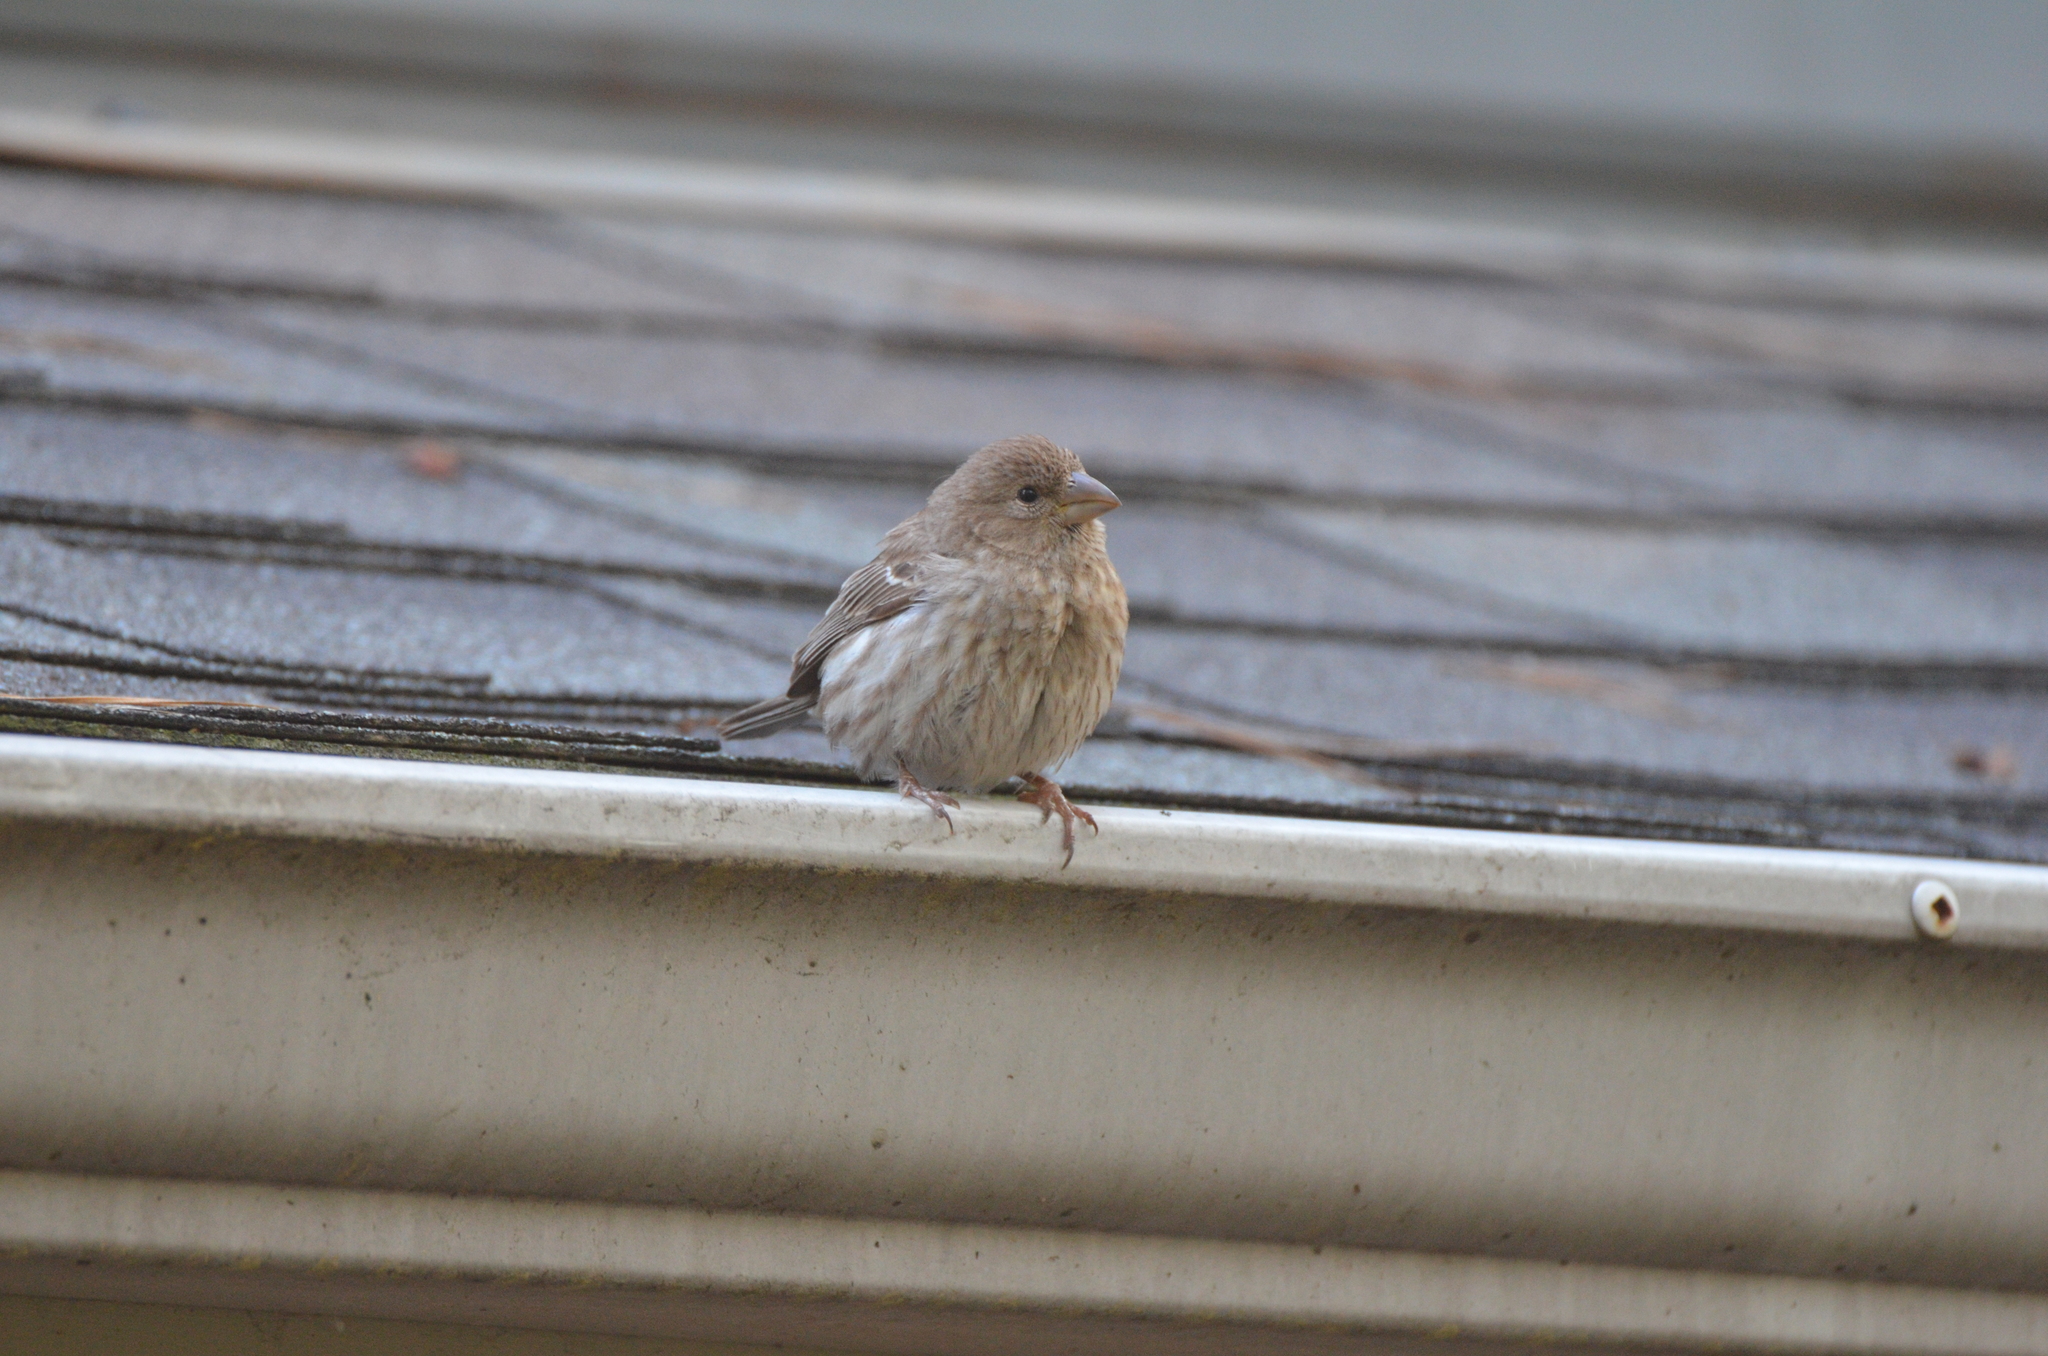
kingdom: Animalia
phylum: Chordata
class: Aves
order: Passeriformes
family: Fringillidae
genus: Haemorhous
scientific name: Haemorhous mexicanus
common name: House finch
